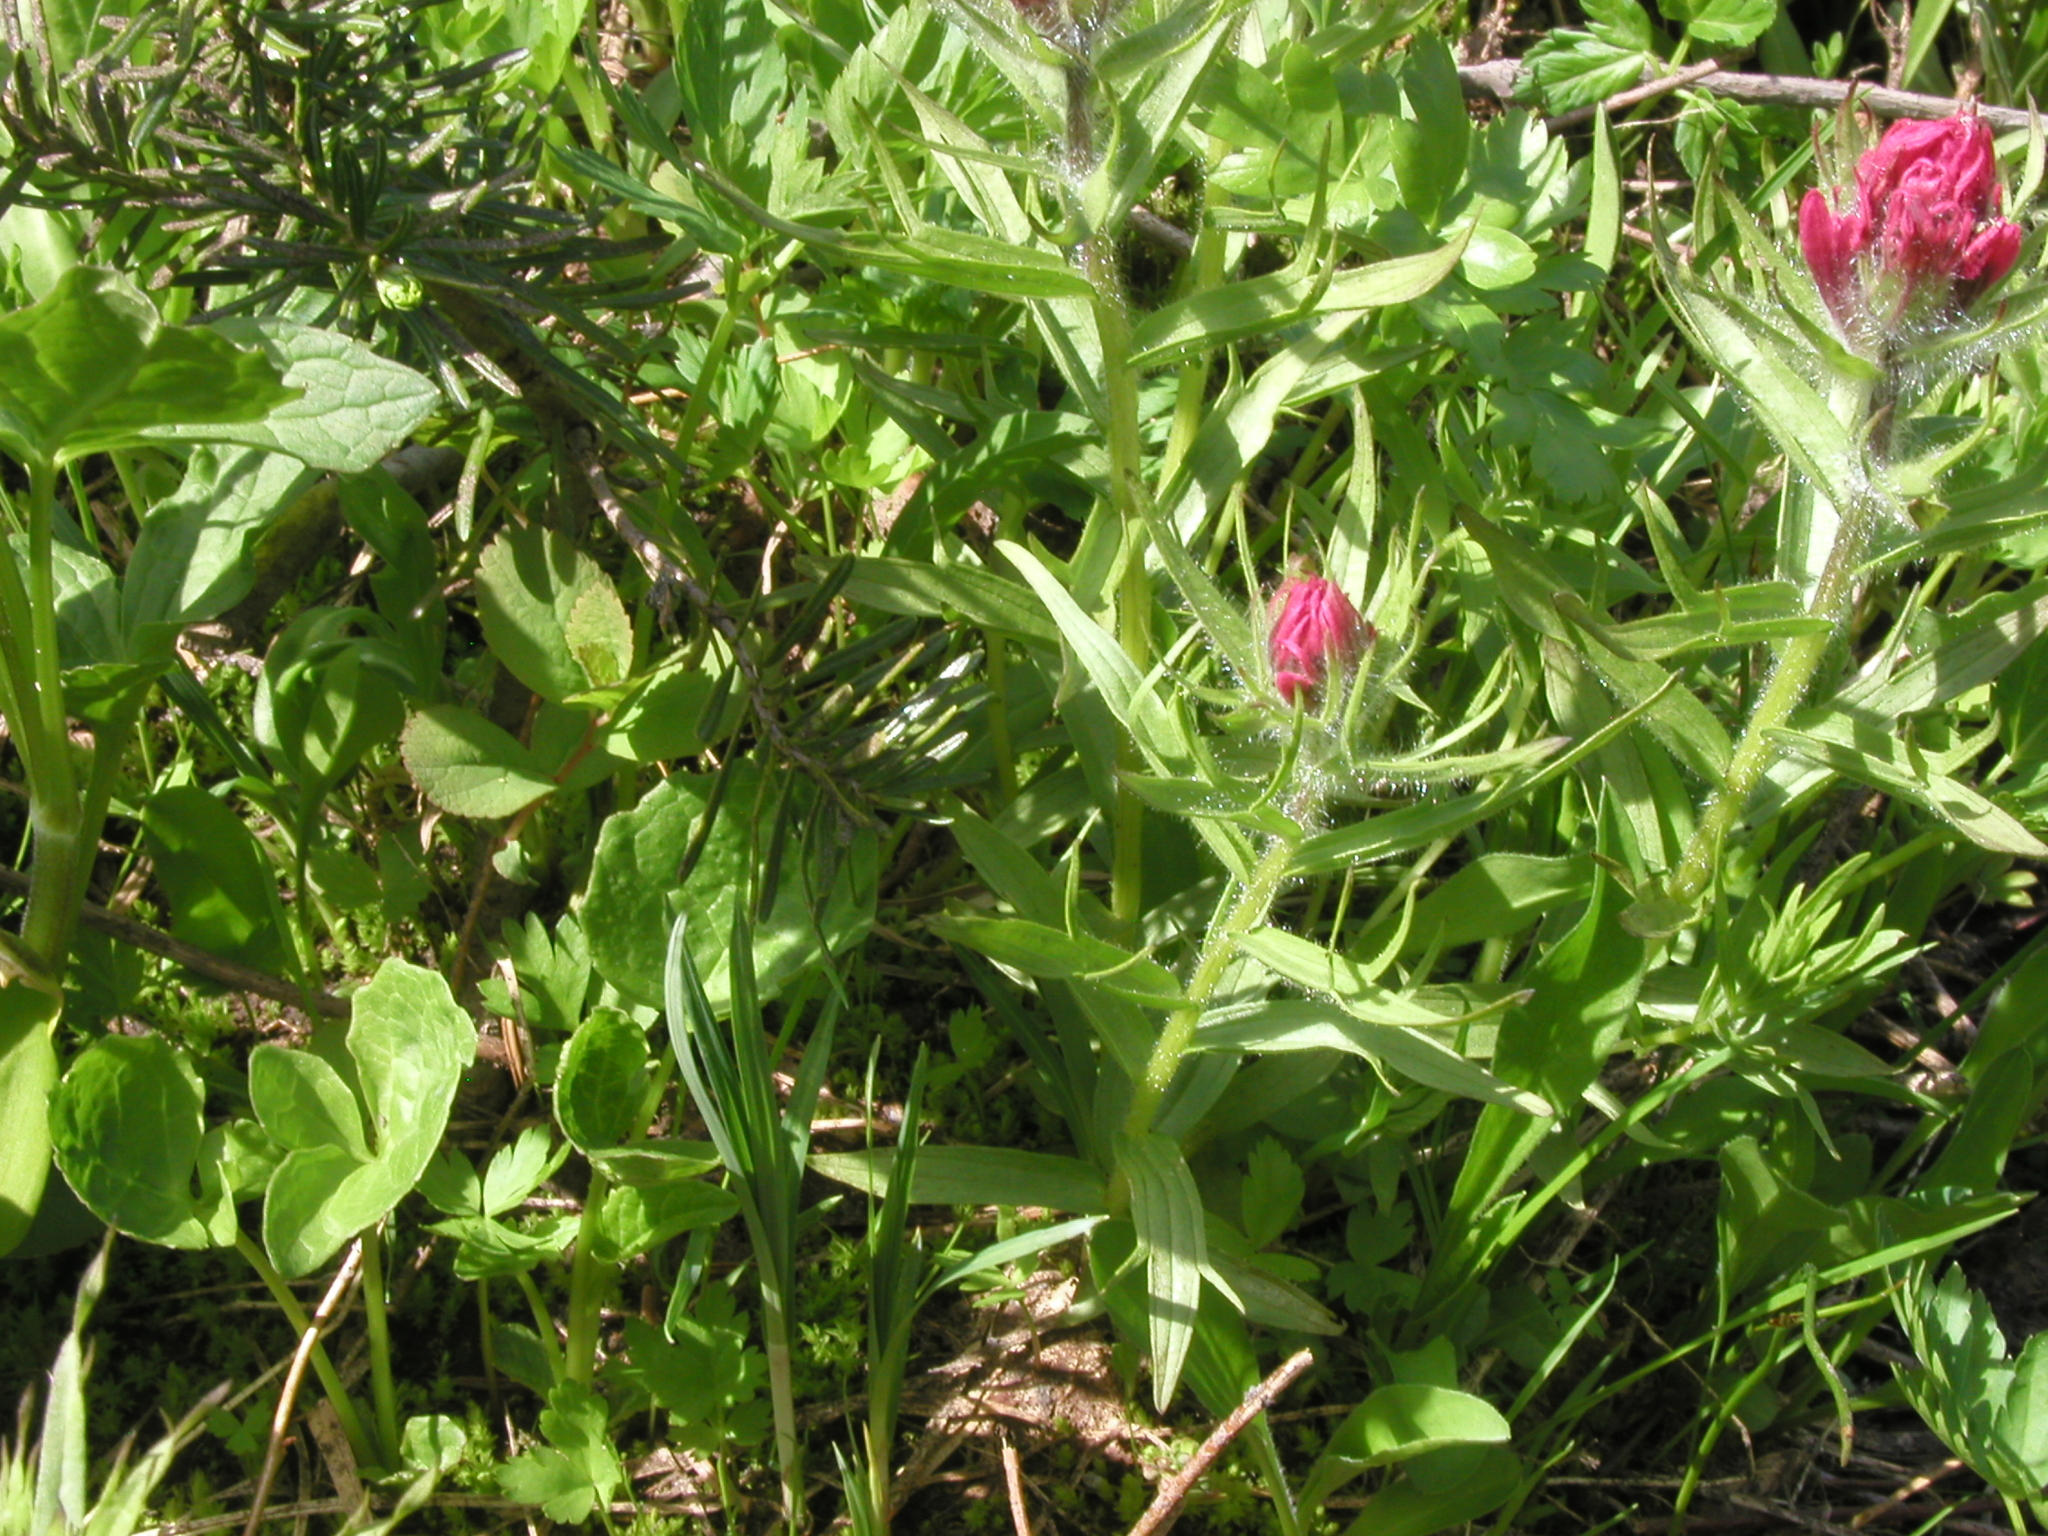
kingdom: Plantae
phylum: Tracheophyta
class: Magnoliopsida
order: Lamiales
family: Orobanchaceae
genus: Castilleja
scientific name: Castilleja parviflora
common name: Mountain paintbrush
